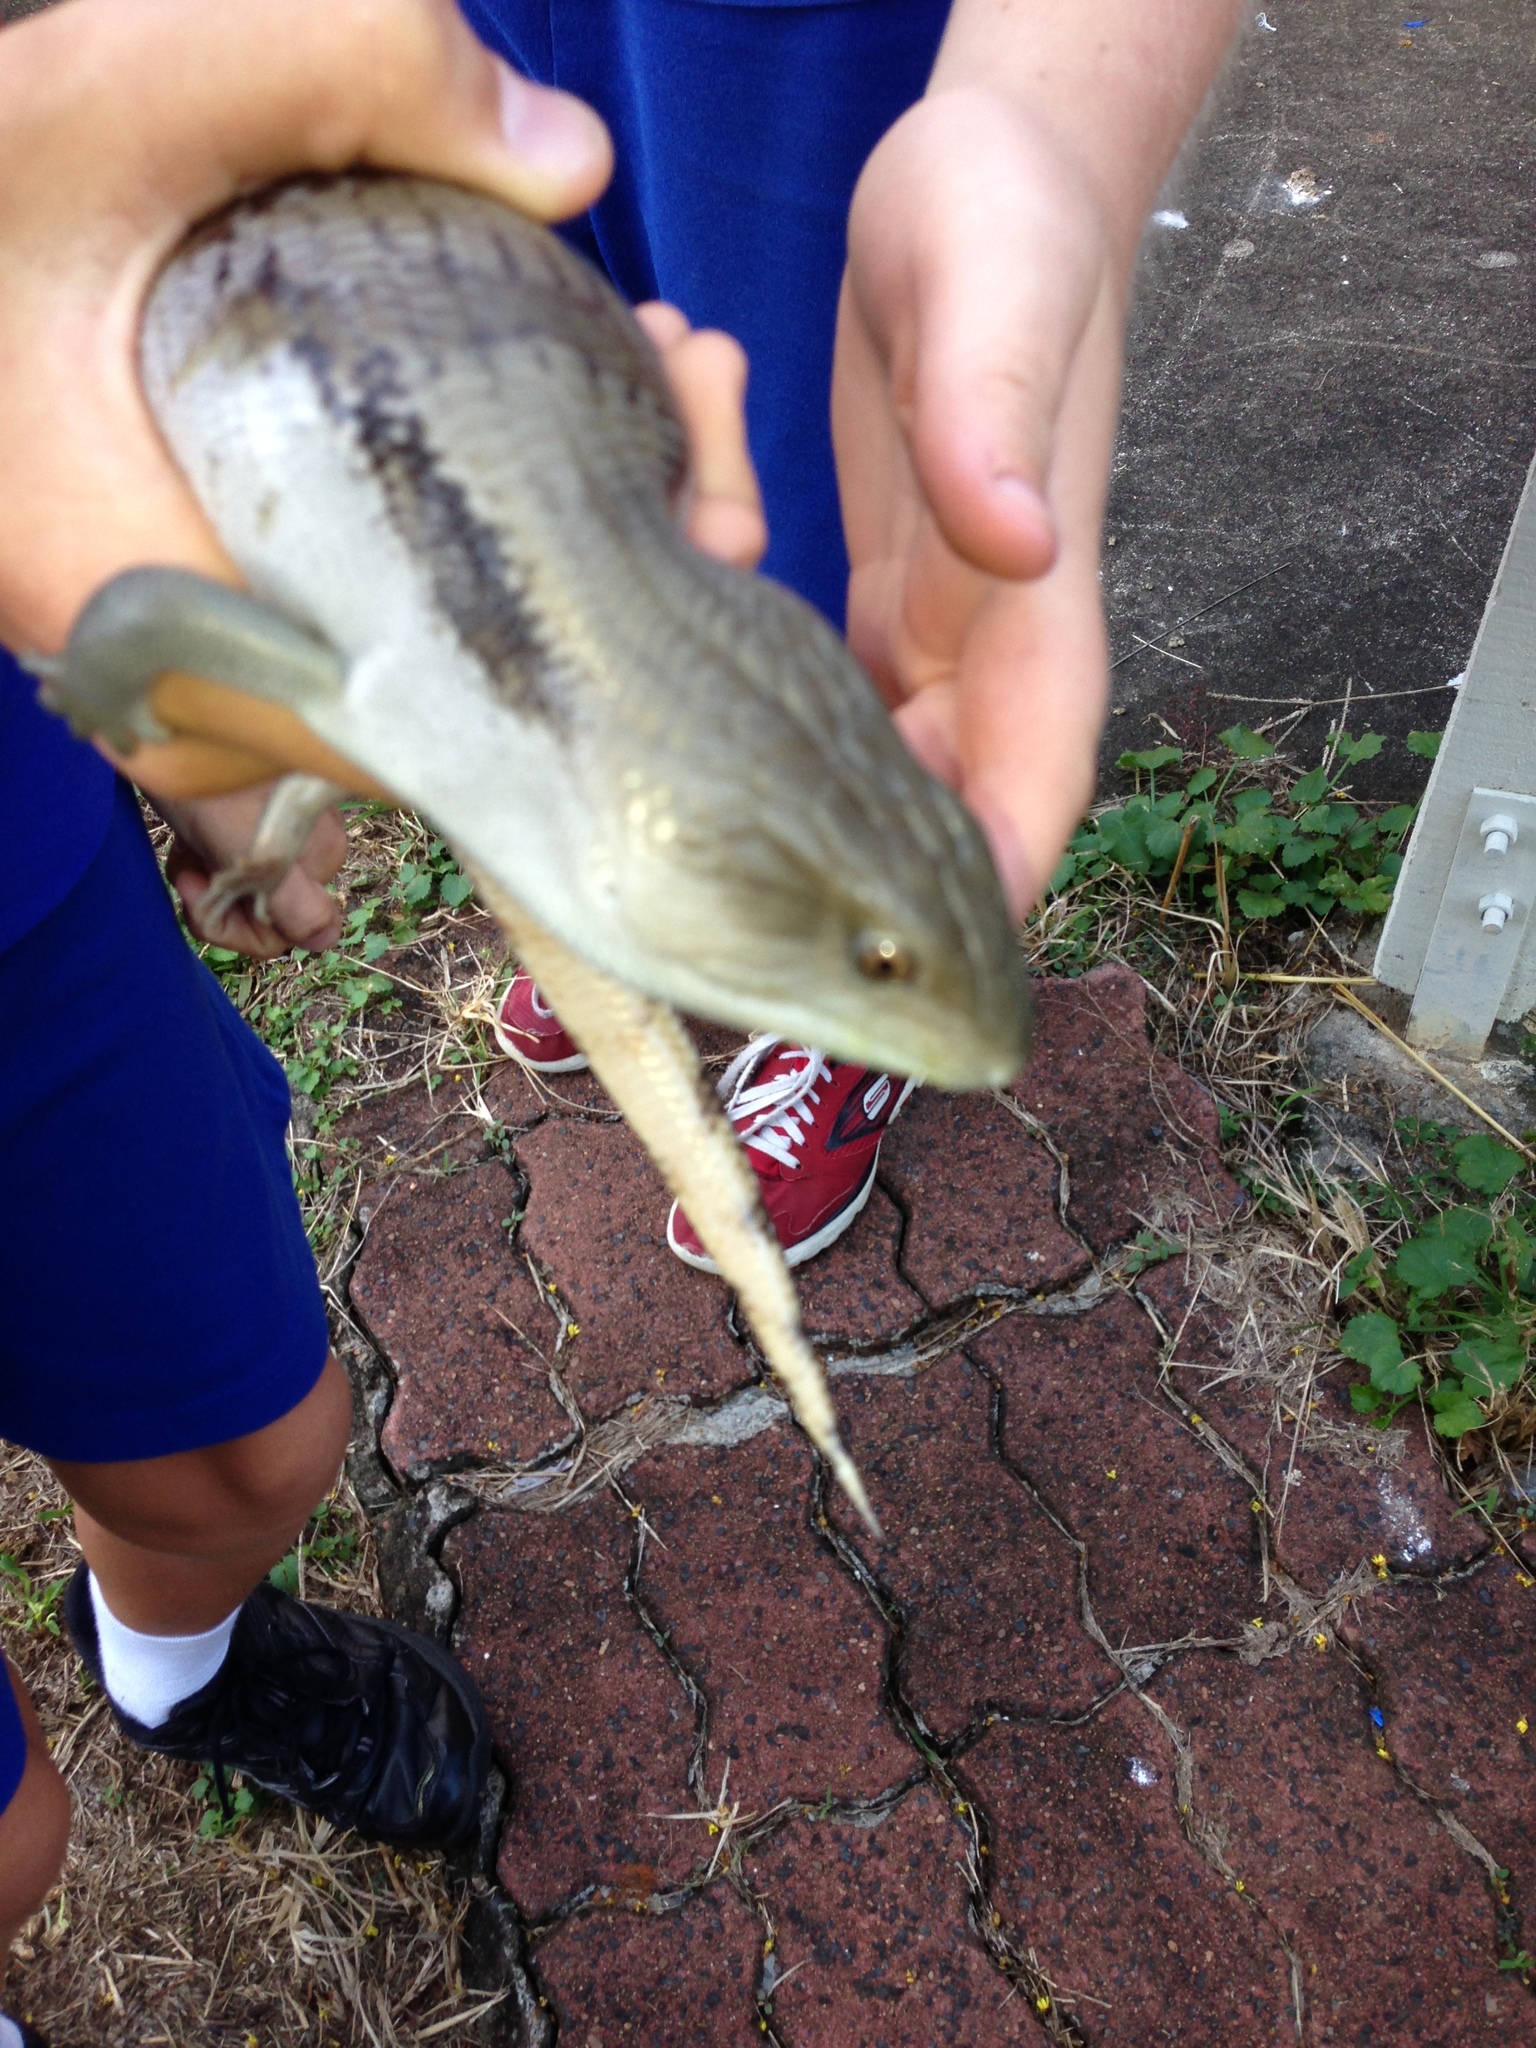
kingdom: Animalia
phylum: Chordata
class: Squamata
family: Scincidae
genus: Tiliqua
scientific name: Tiliqua scincoides
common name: Common bluetongue
